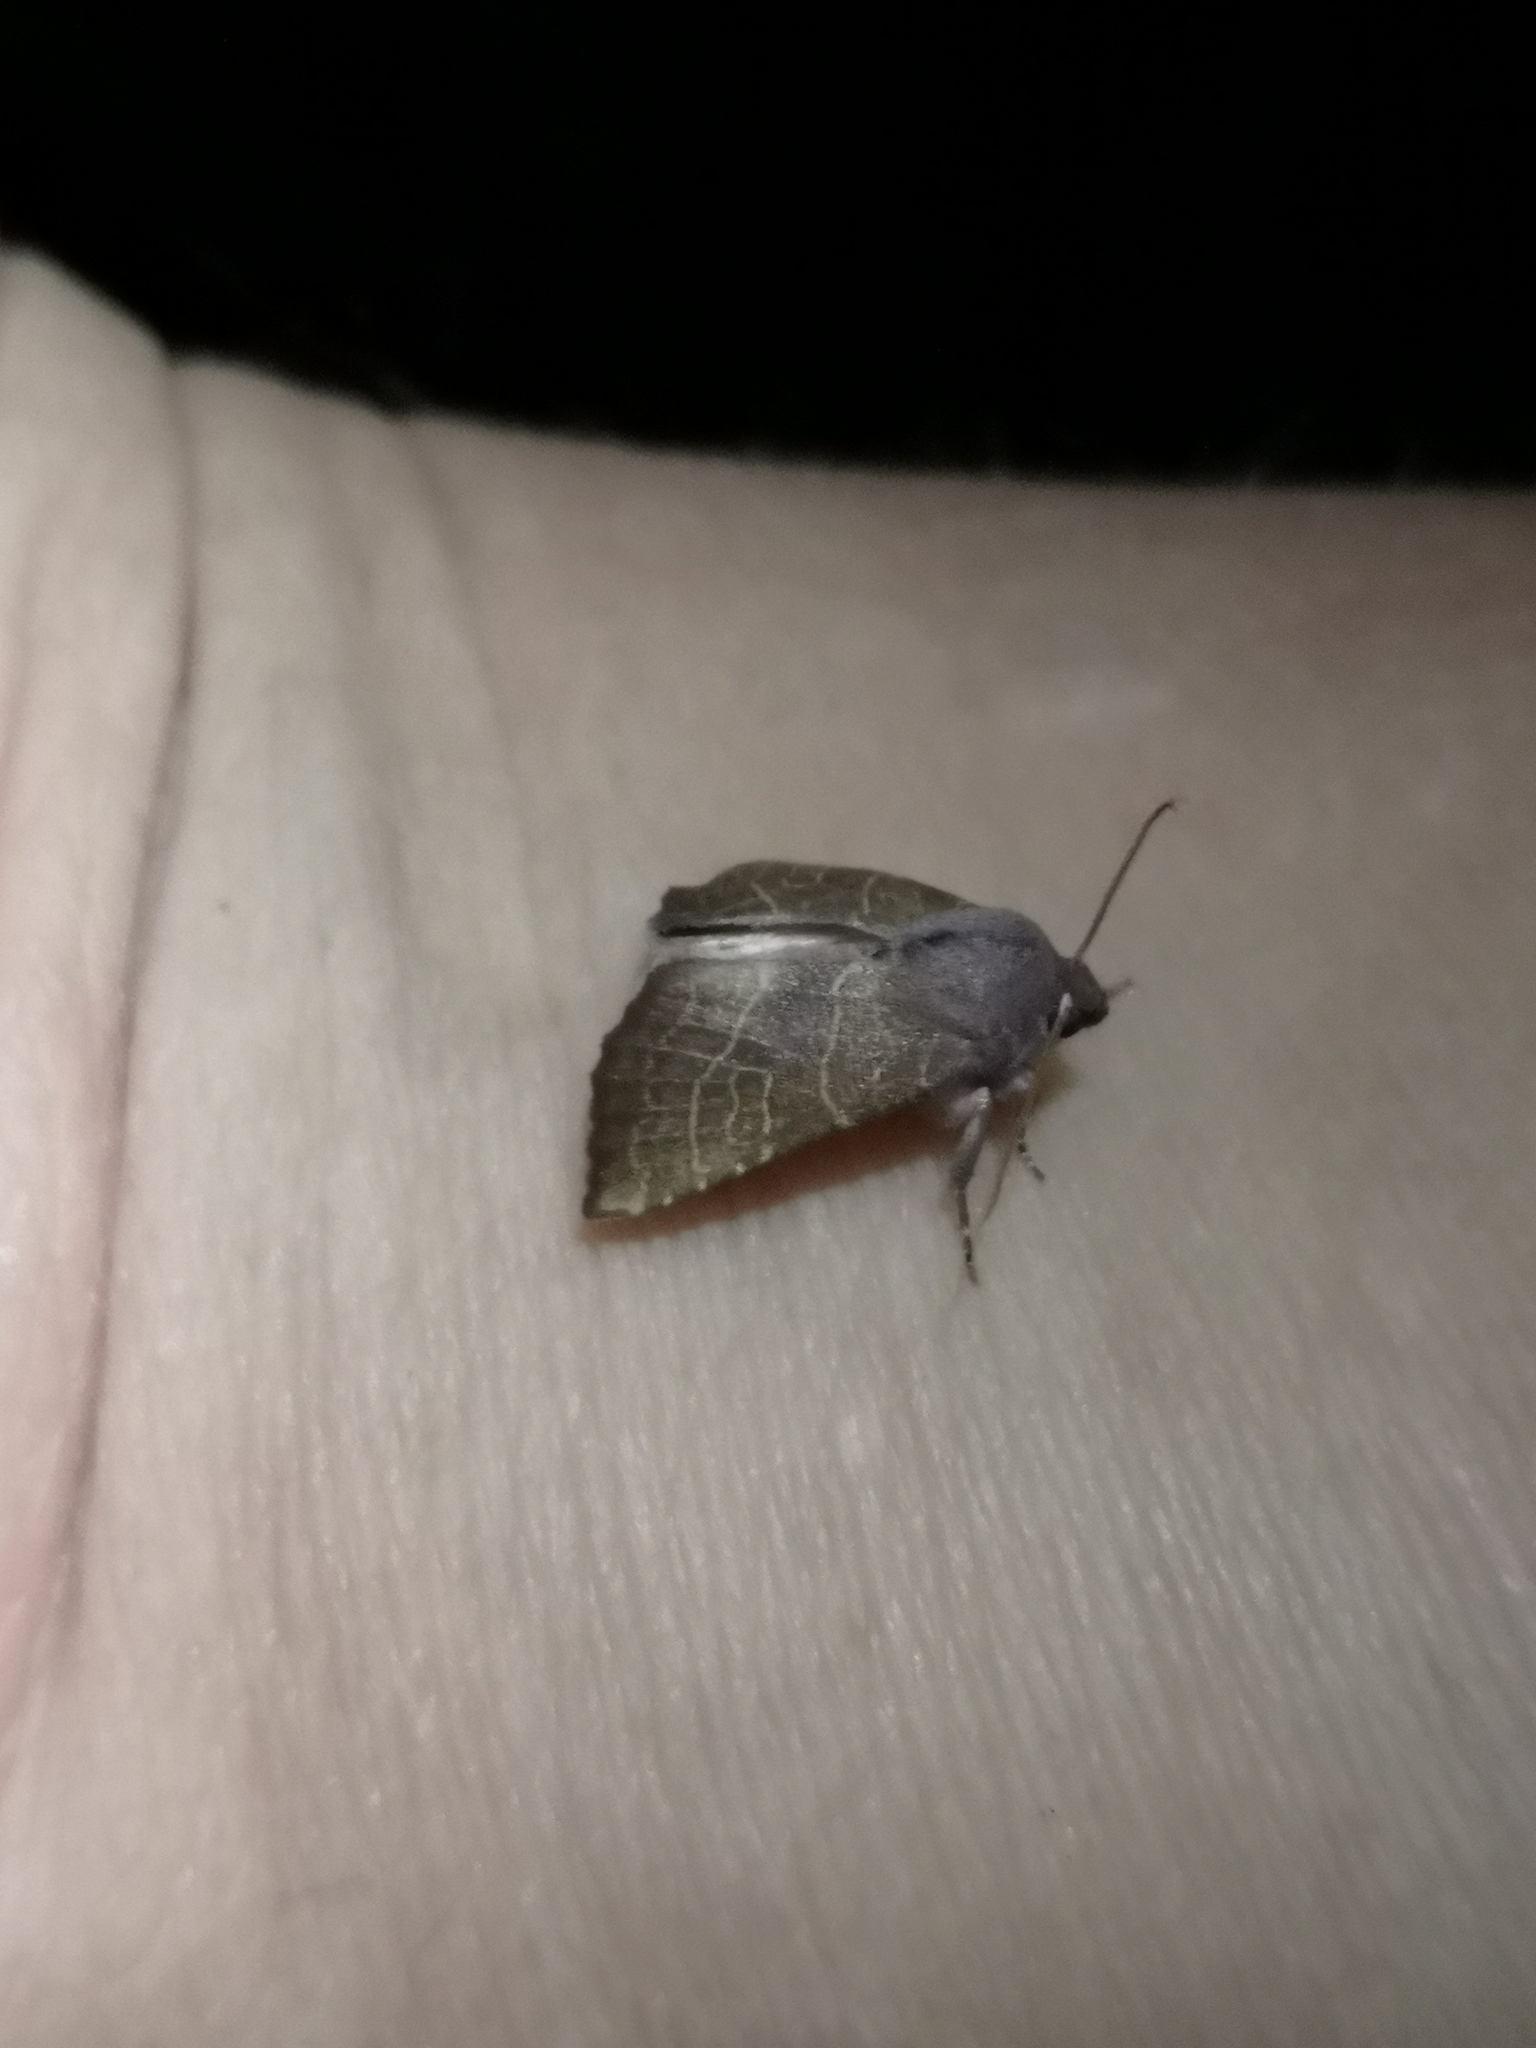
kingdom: Animalia
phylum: Arthropoda
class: Insecta
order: Lepidoptera
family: Noctuidae
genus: Atethmia
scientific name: Atethmia ambusta
